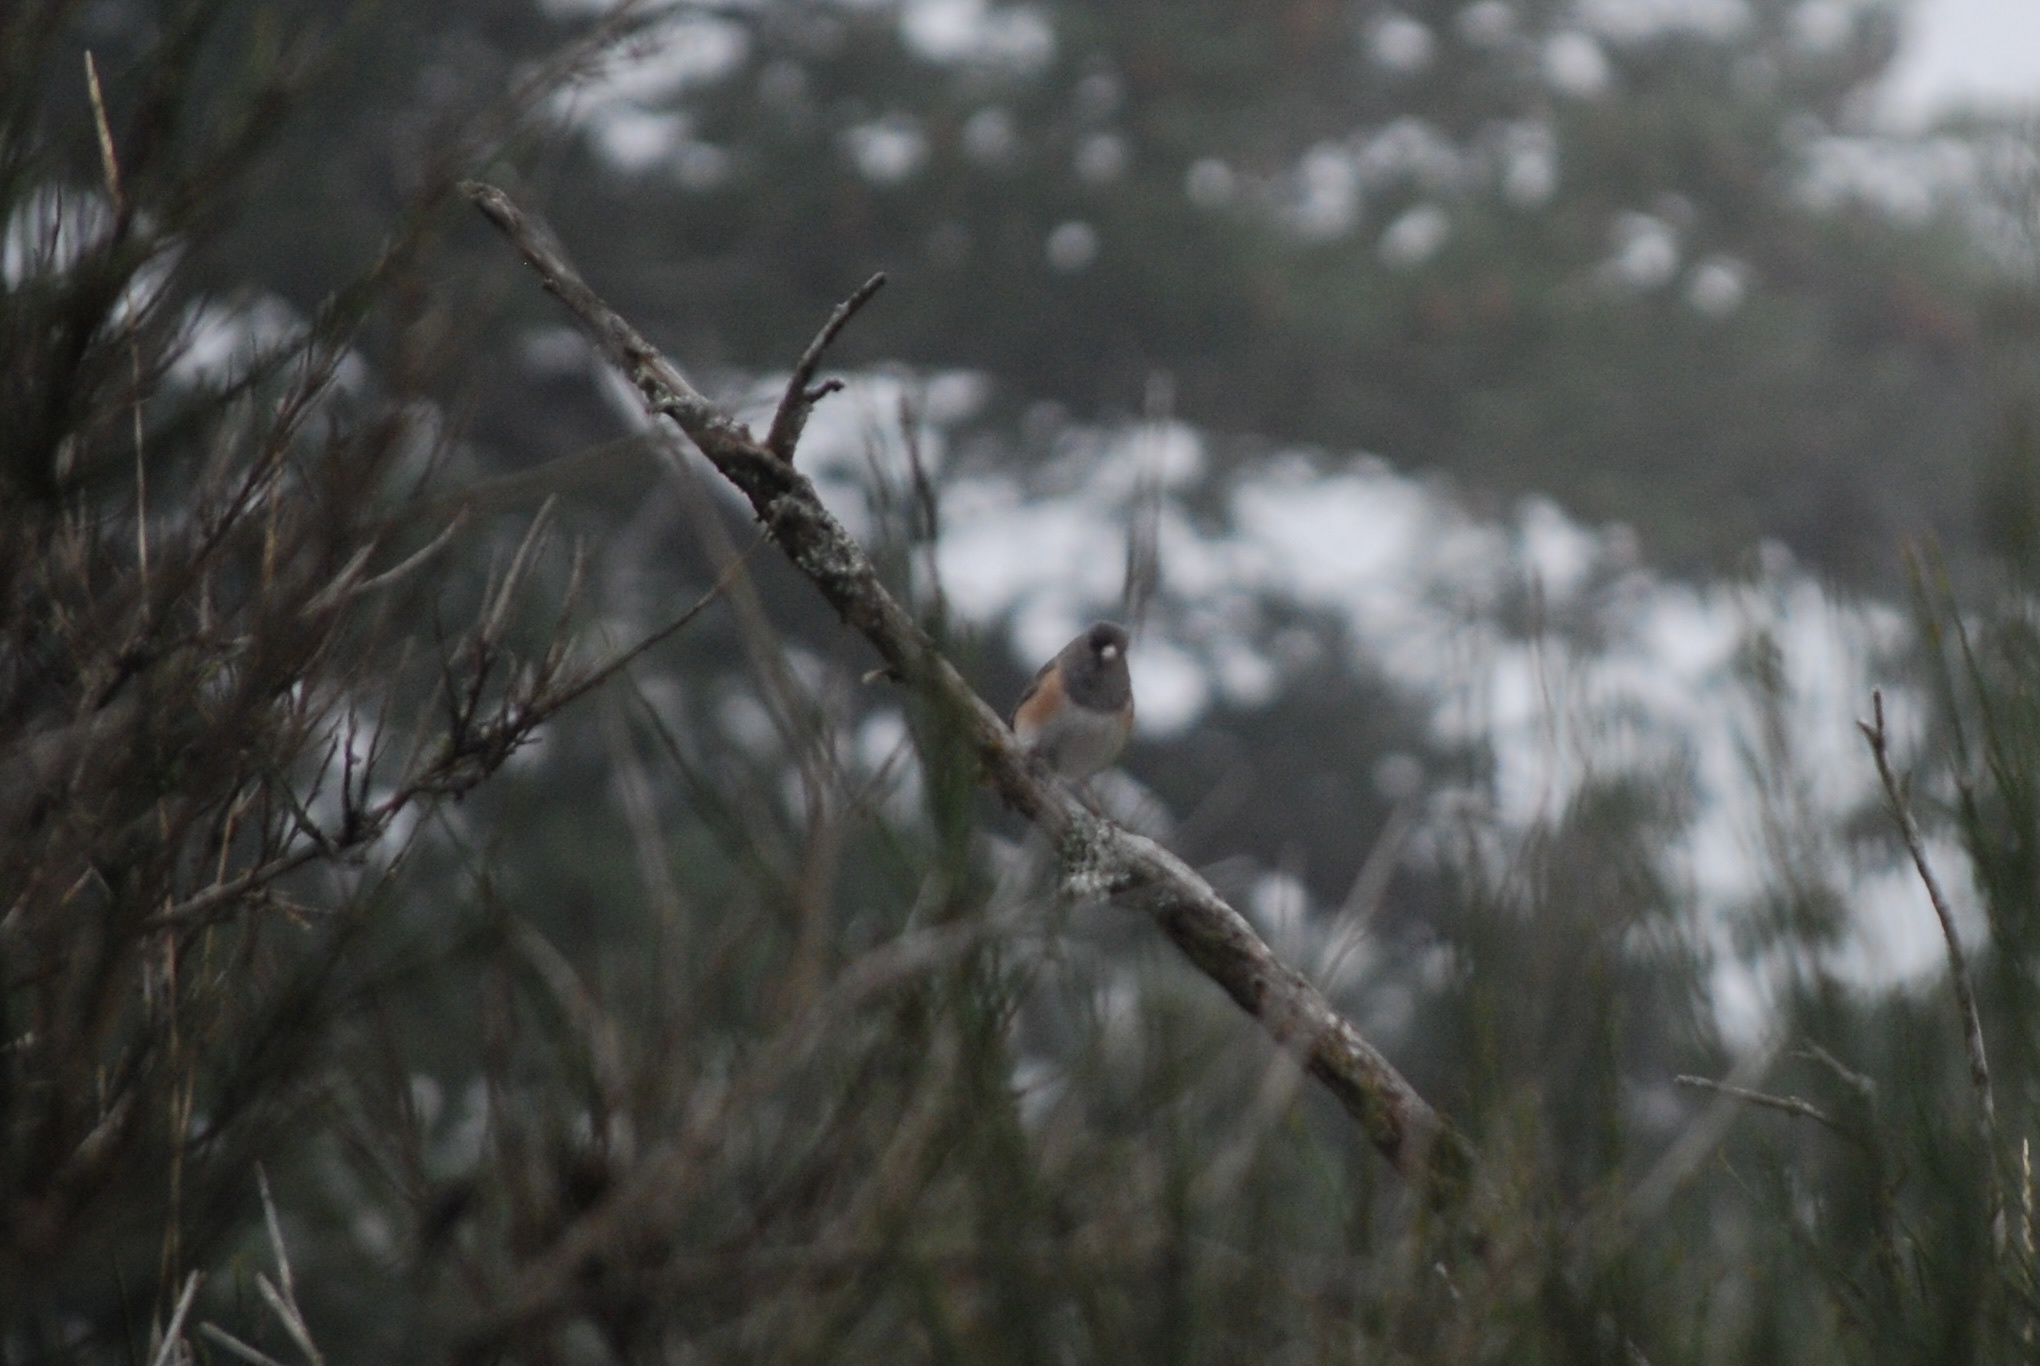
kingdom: Animalia
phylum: Chordata
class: Aves
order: Passeriformes
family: Passerellidae
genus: Junco
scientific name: Junco hyemalis
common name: Dark-eyed junco
